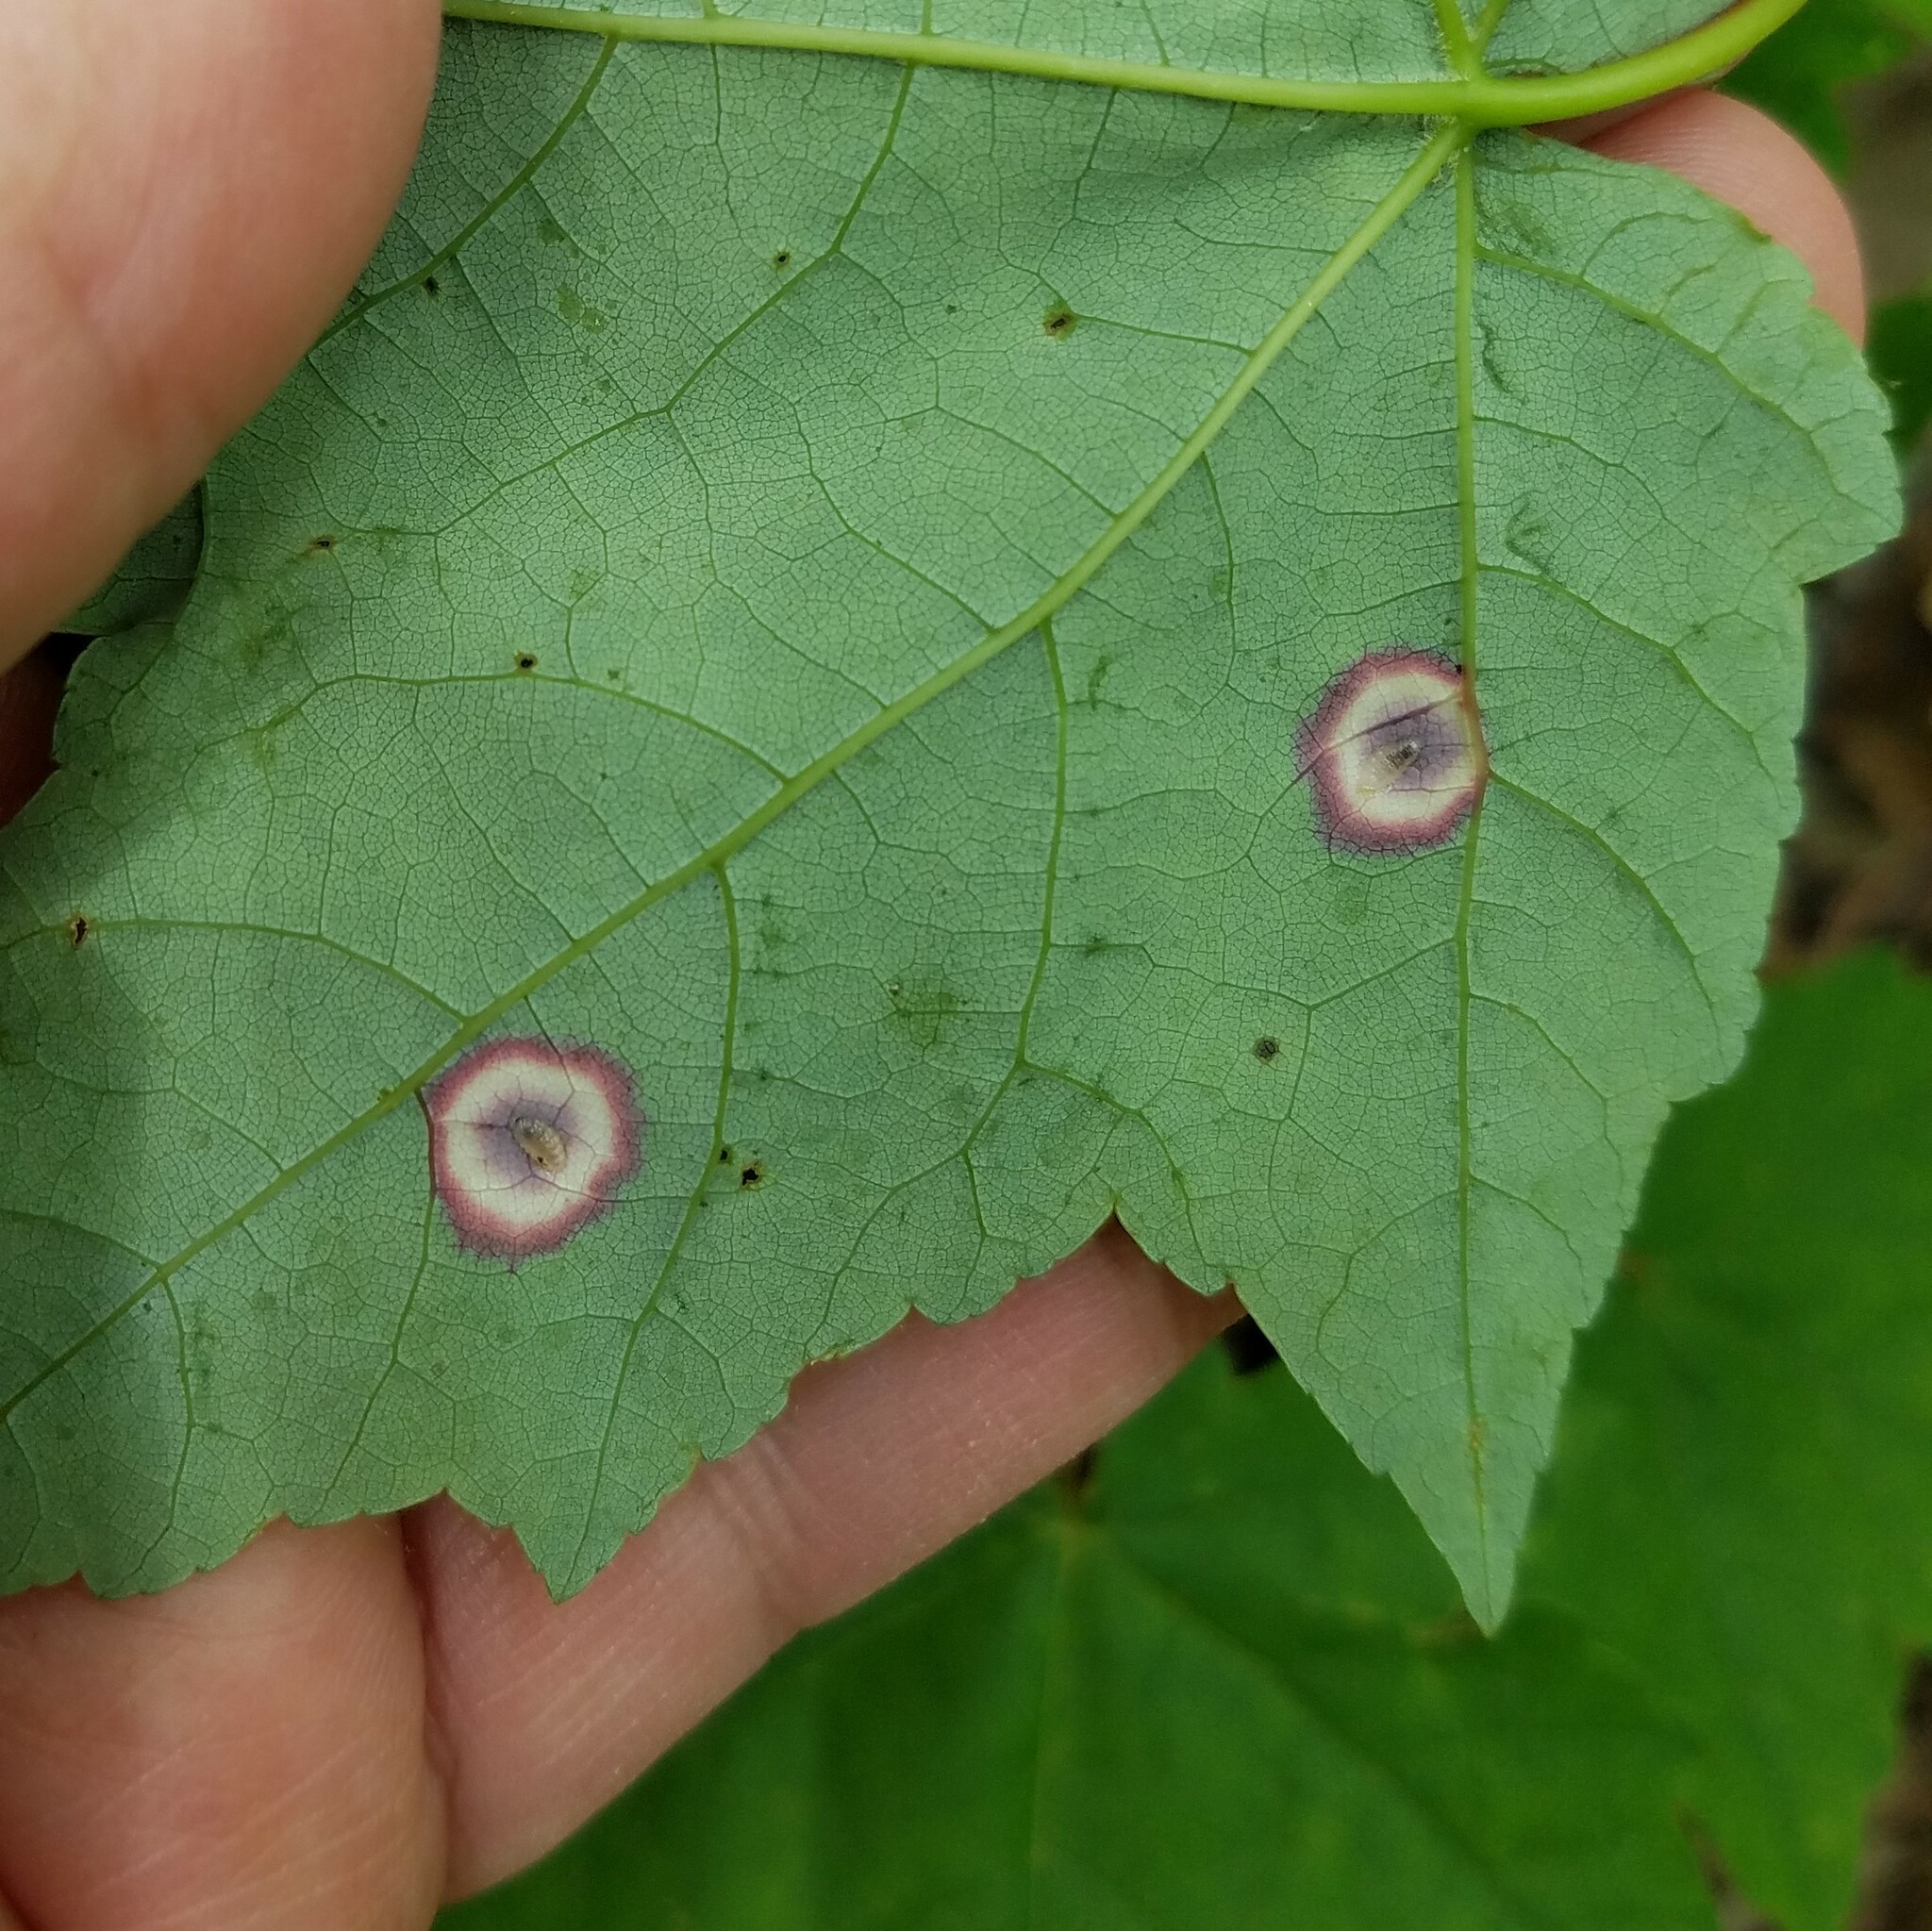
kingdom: Animalia
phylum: Arthropoda
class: Insecta
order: Diptera
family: Cecidomyiidae
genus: Acericecis
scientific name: Acericecis ocellaris
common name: Ocellate gall midge
